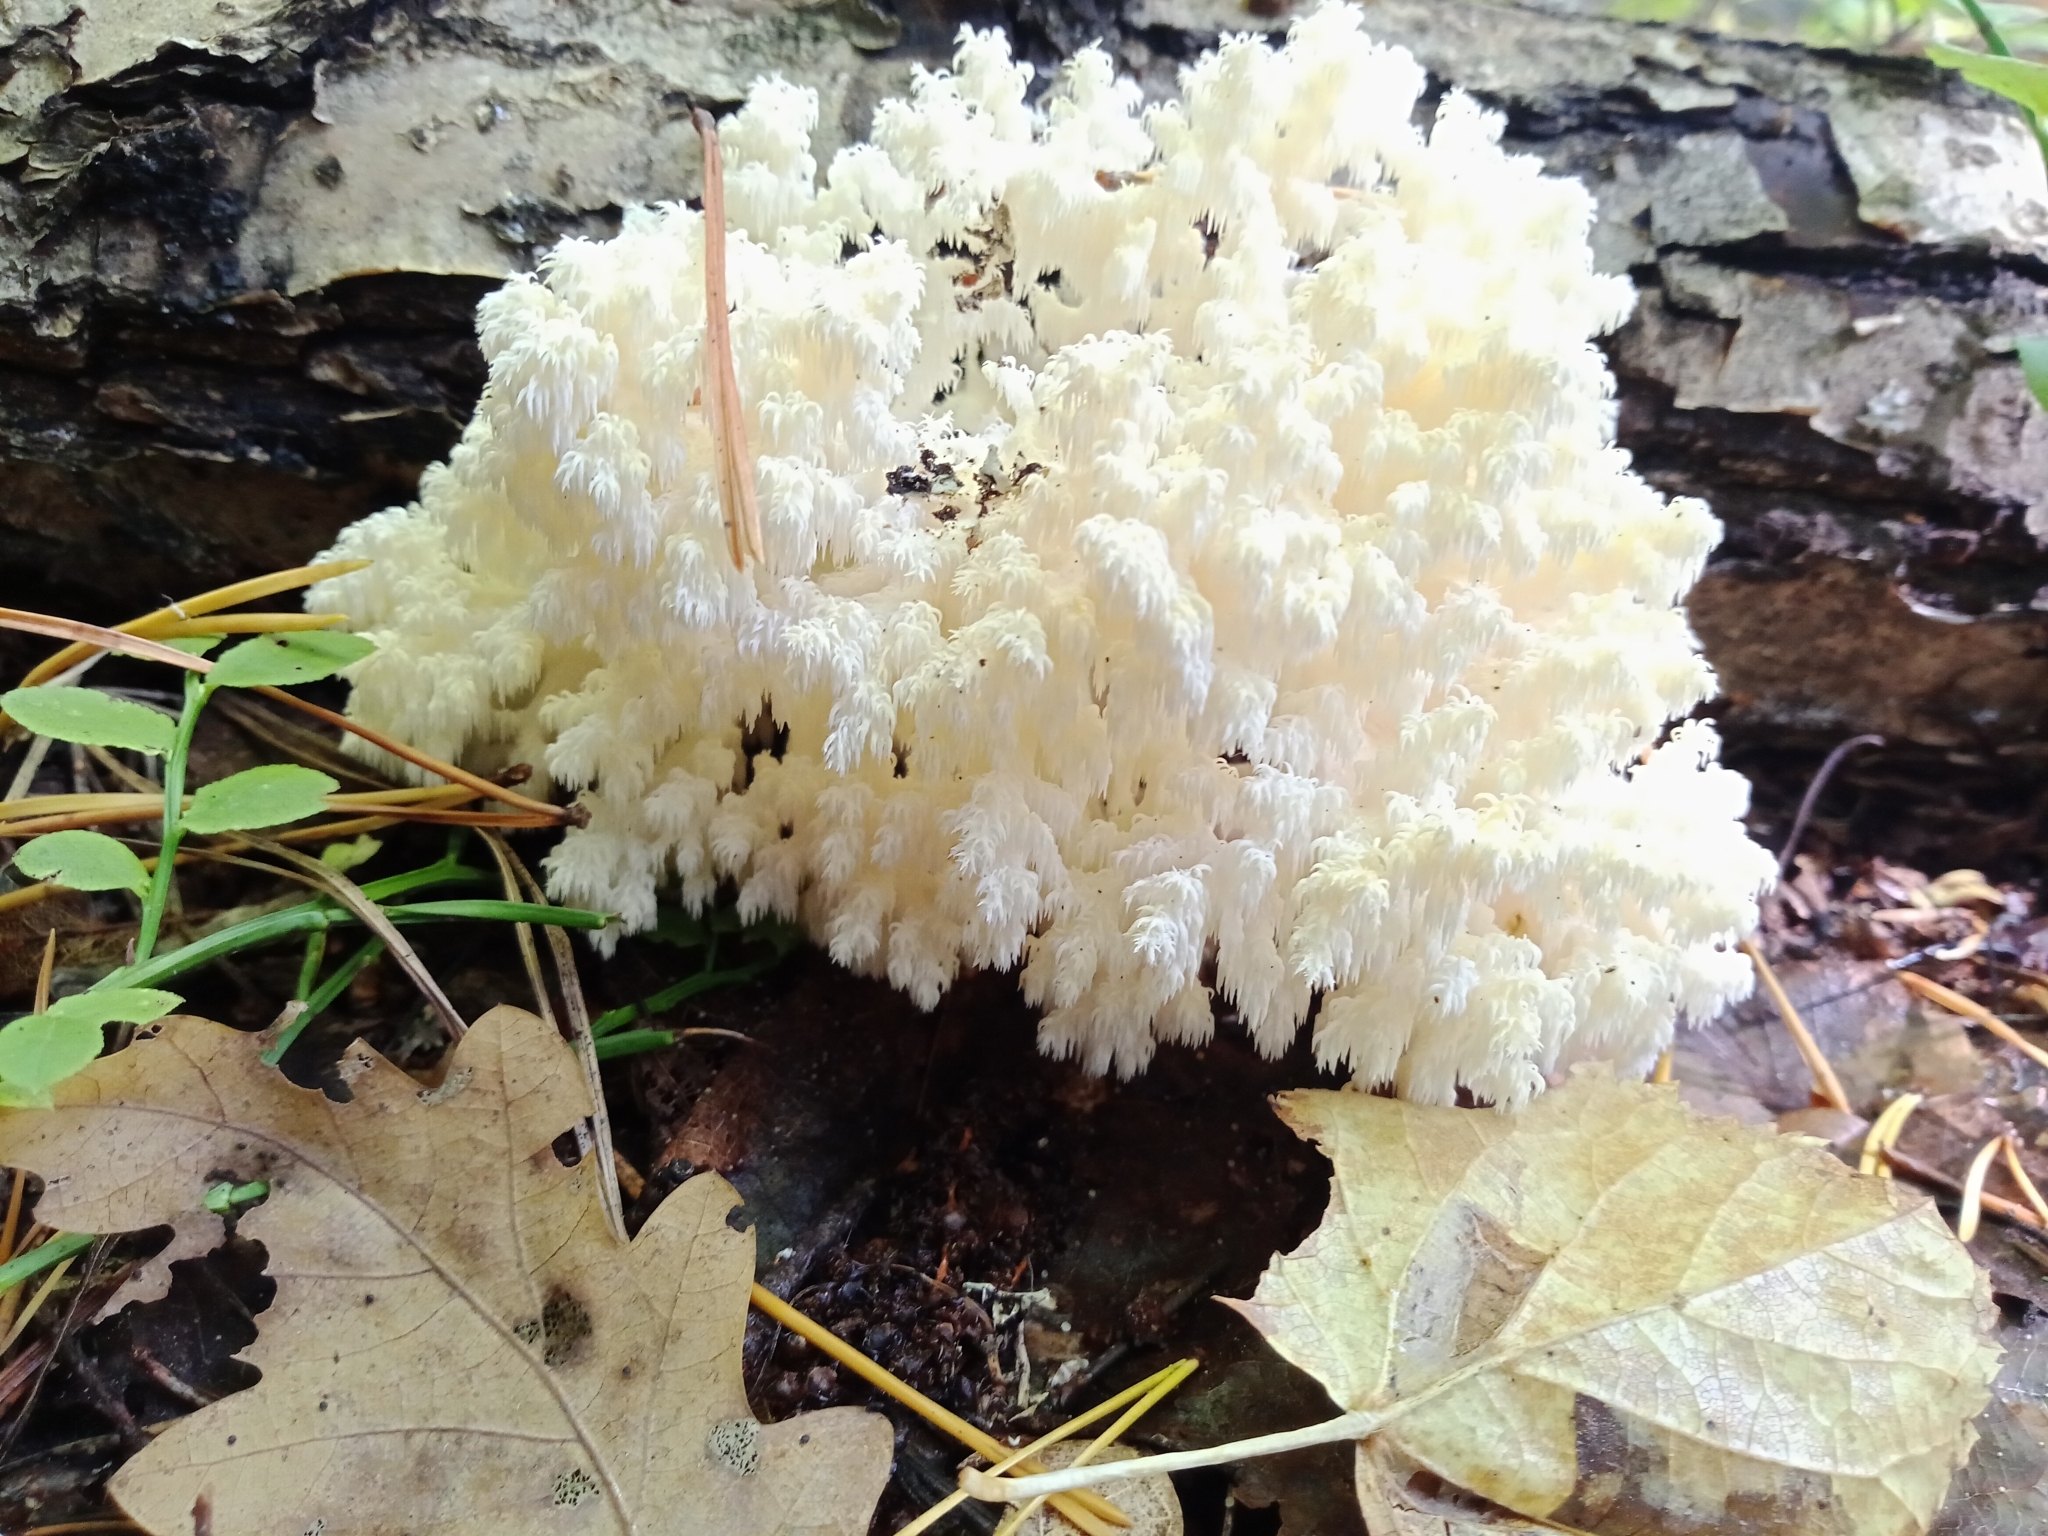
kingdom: Fungi
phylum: Basidiomycota
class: Agaricomycetes
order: Russulales
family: Hericiaceae
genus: Hericium
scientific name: Hericium coralloides
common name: Coral tooth
